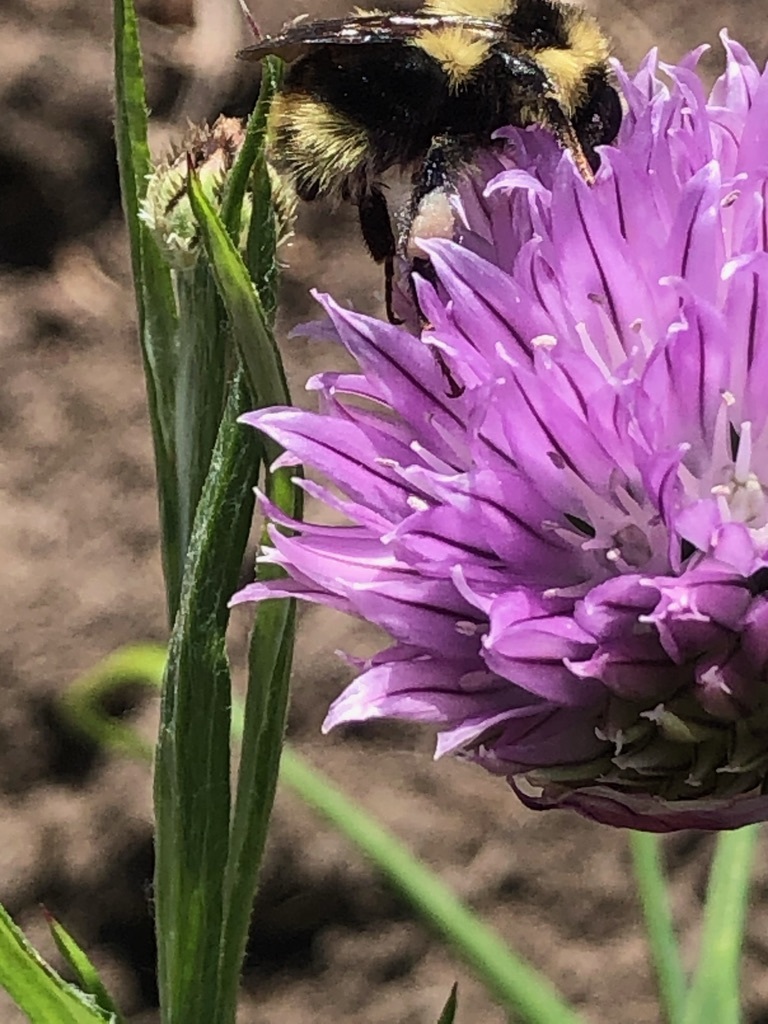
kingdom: Animalia
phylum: Arthropoda
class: Insecta
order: Hymenoptera
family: Apidae
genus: Bombus
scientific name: Bombus melanopygus
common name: Black tail bumble bee
